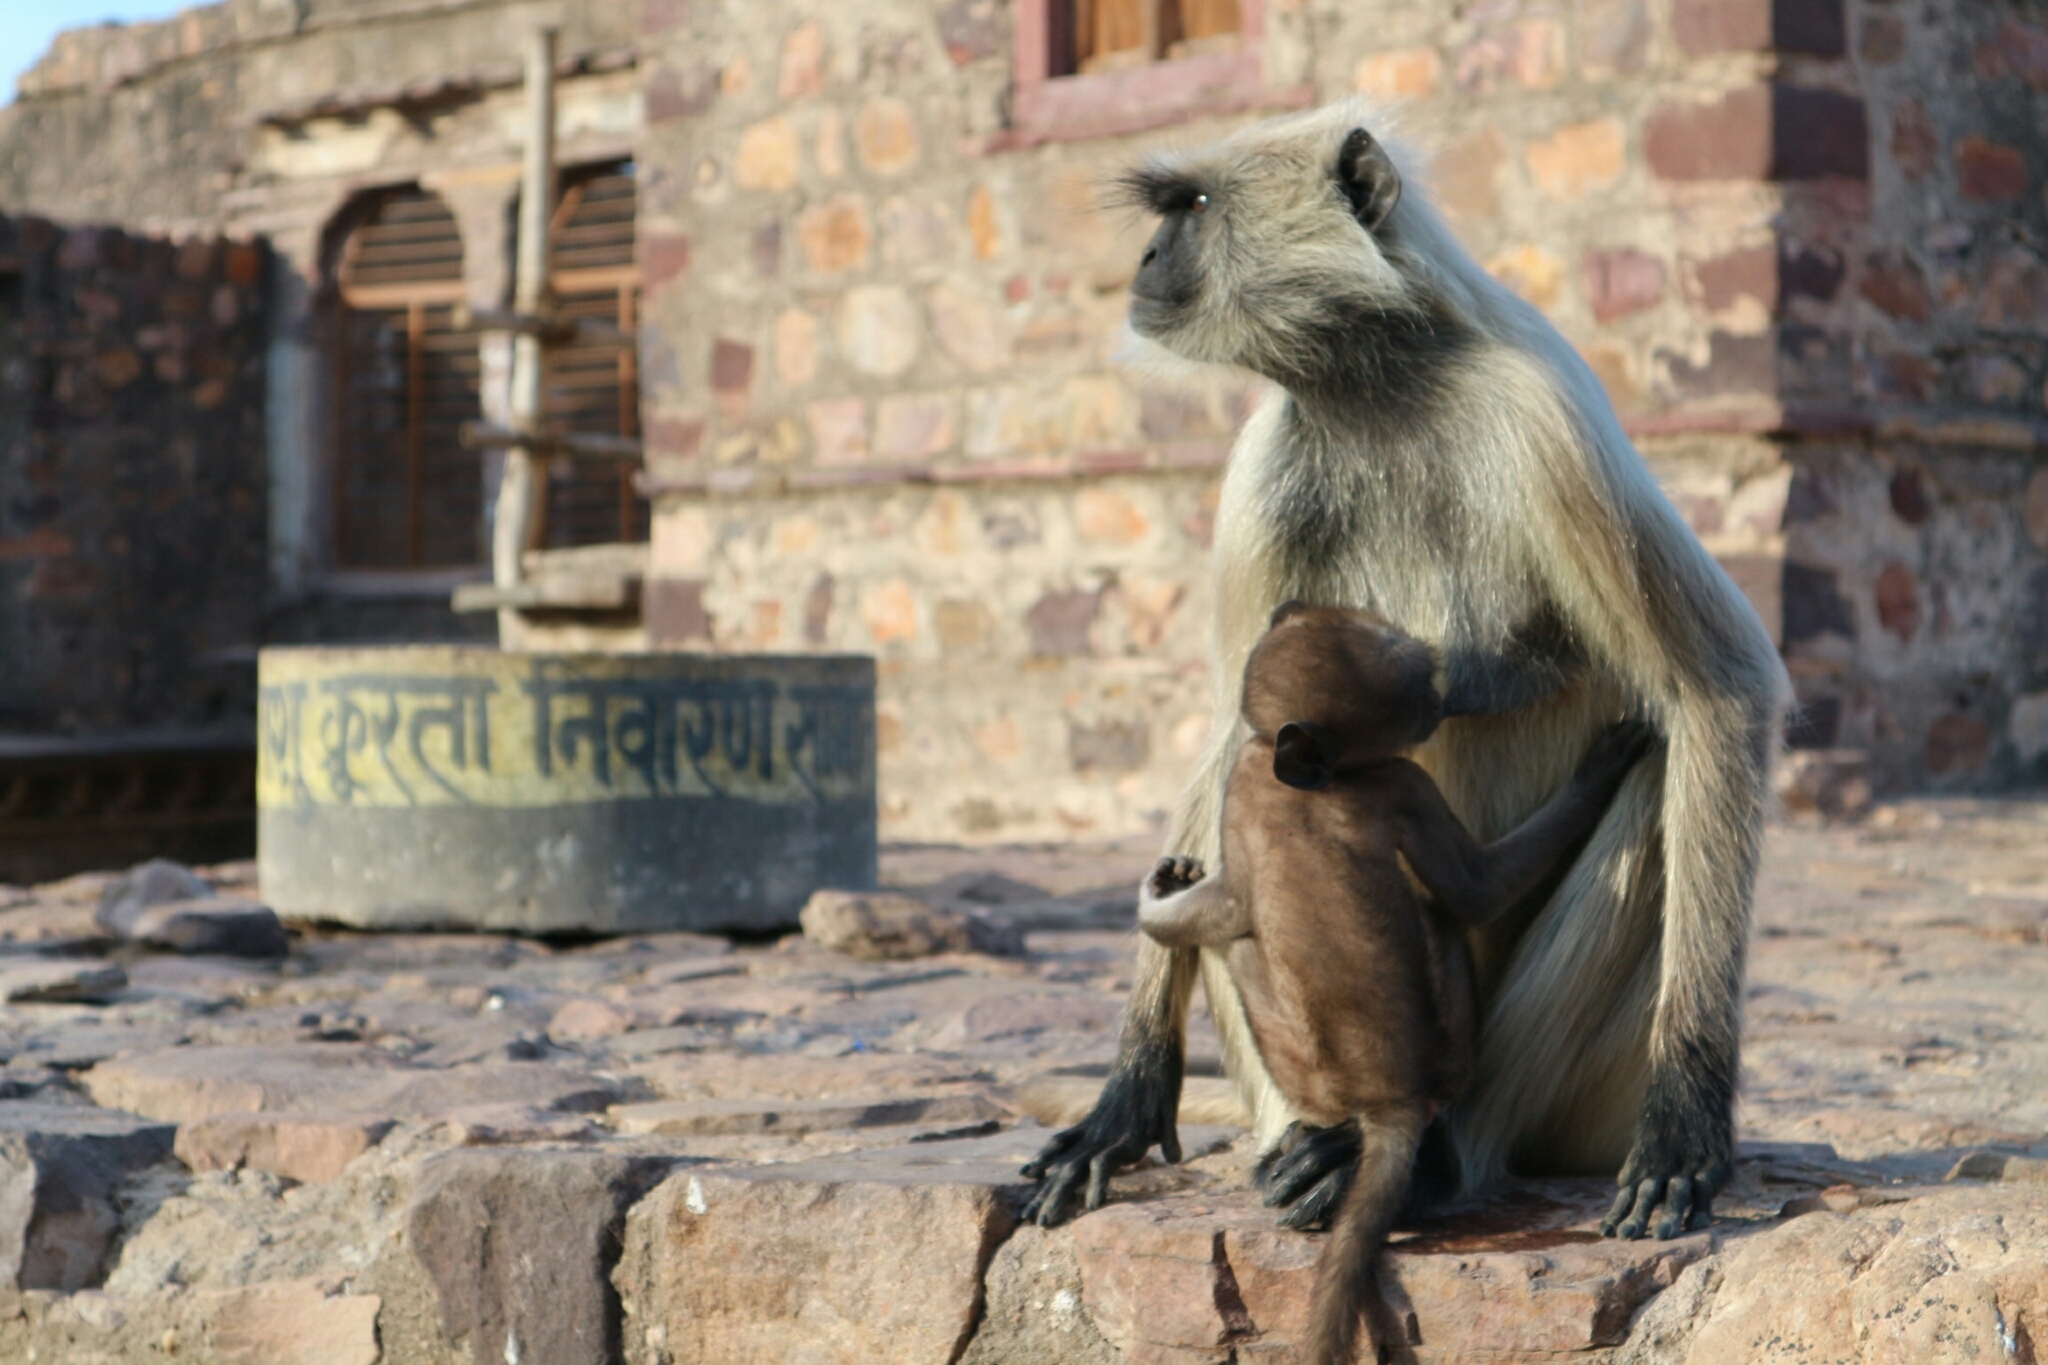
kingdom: Animalia
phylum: Chordata
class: Mammalia
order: Primates
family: Cercopithecidae
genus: Semnopithecus
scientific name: Semnopithecus entellus
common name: Northern plains gray langur
